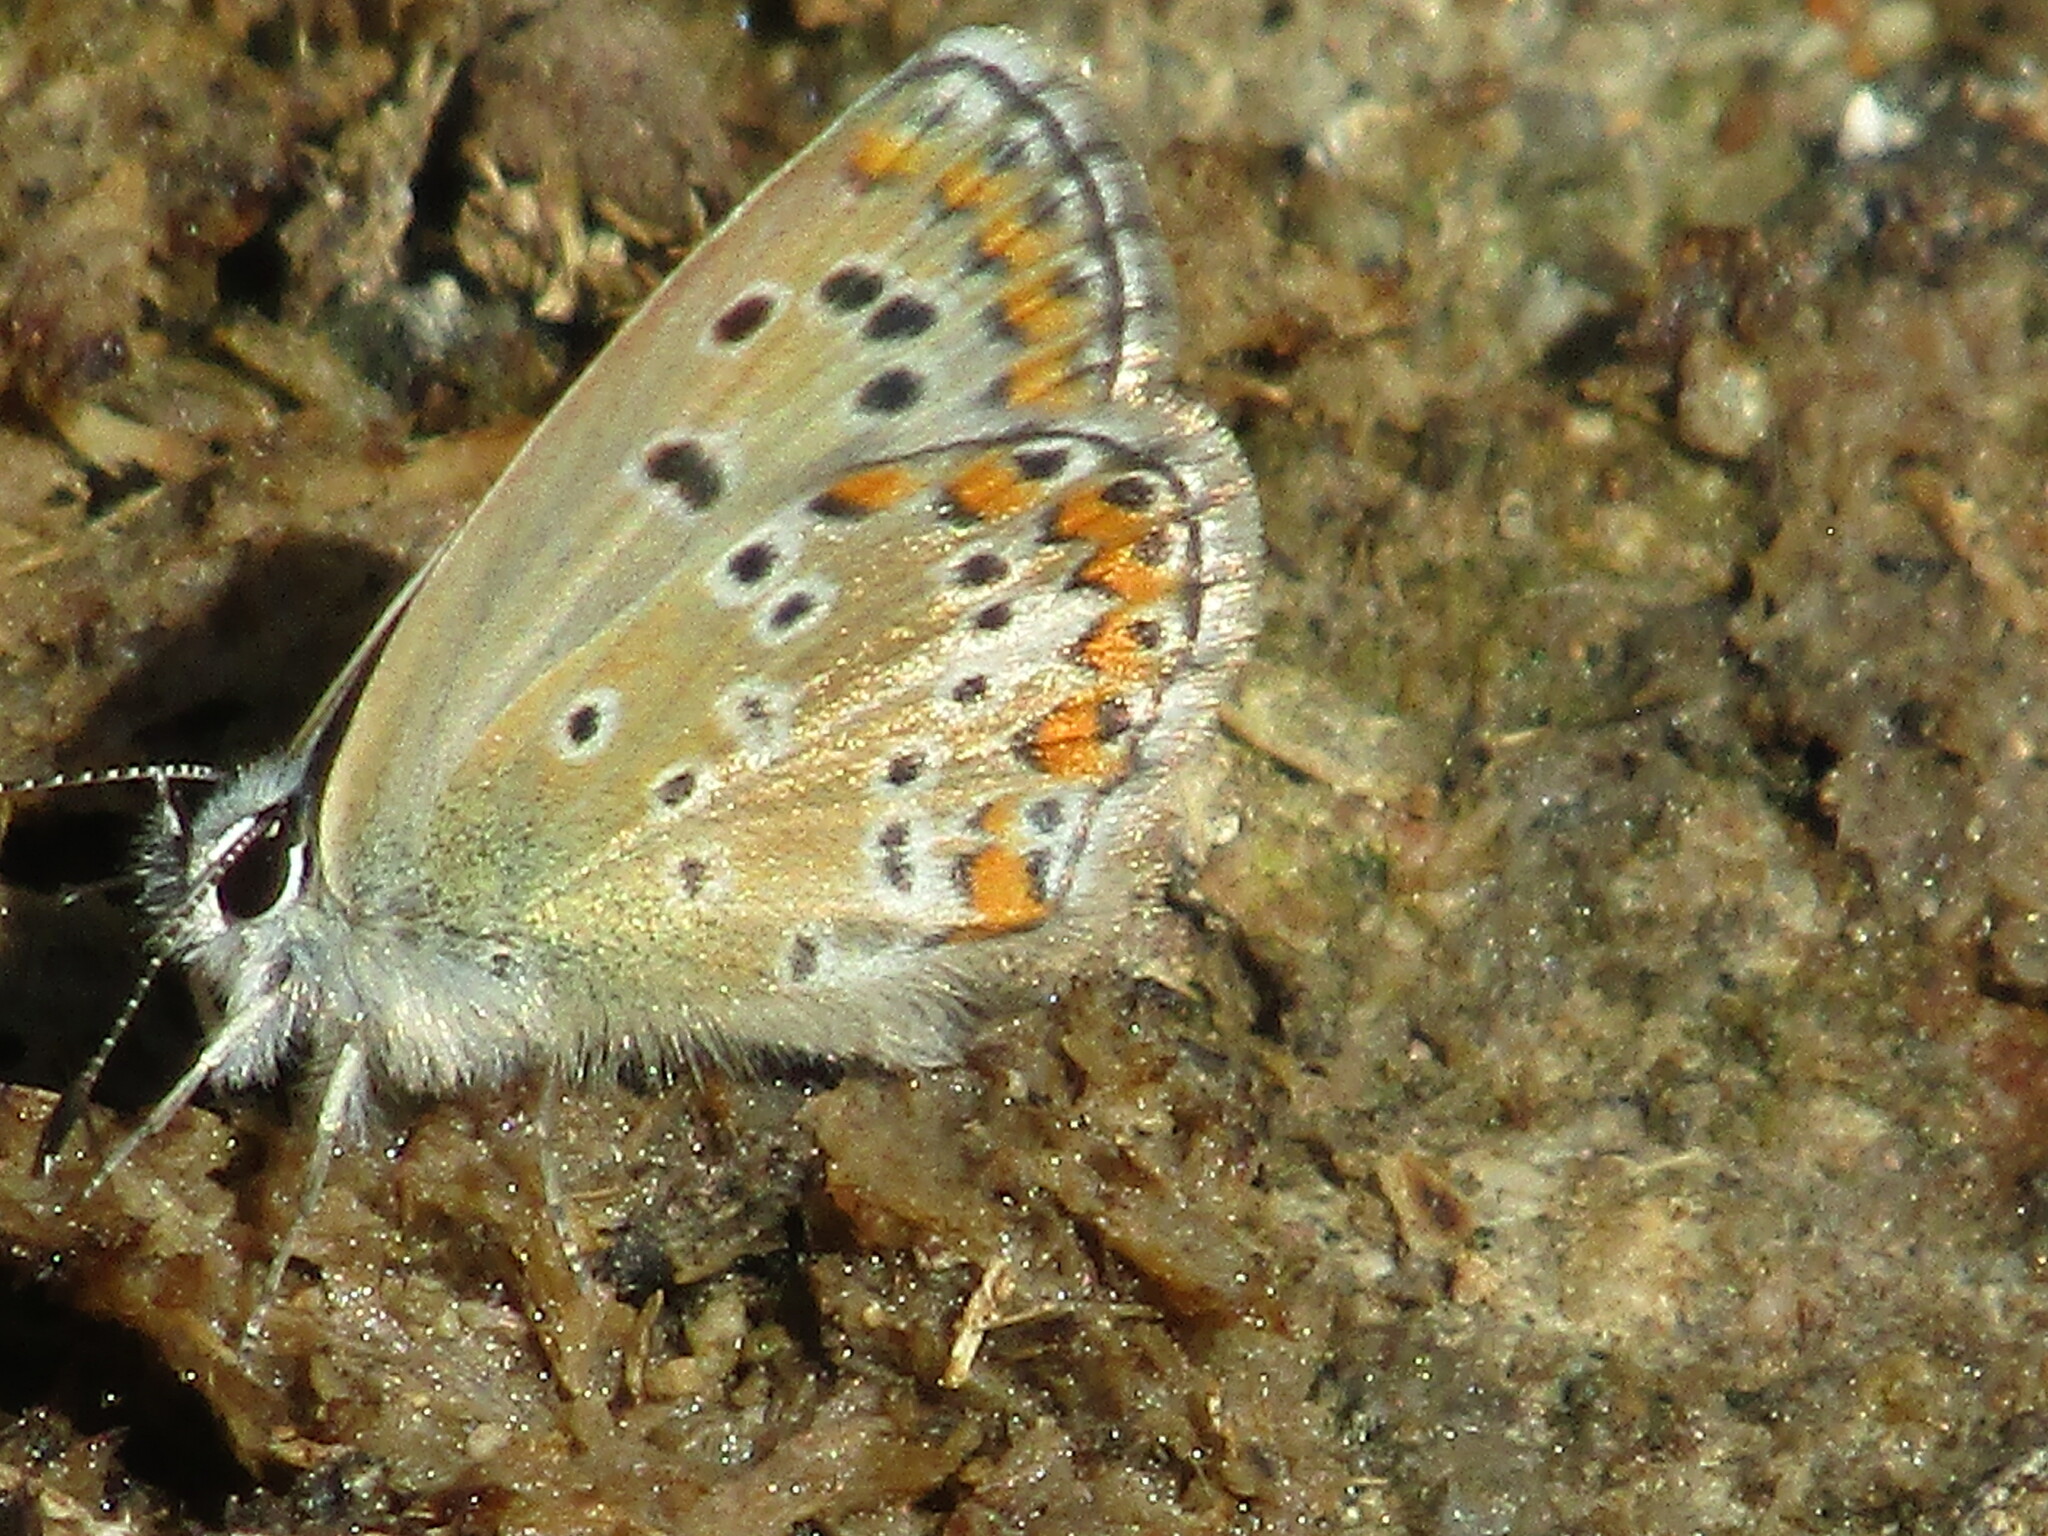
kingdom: Animalia
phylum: Arthropoda
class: Insecta
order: Lepidoptera
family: Lycaenidae
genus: Aricia
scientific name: Aricia agestis
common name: Brown argus
